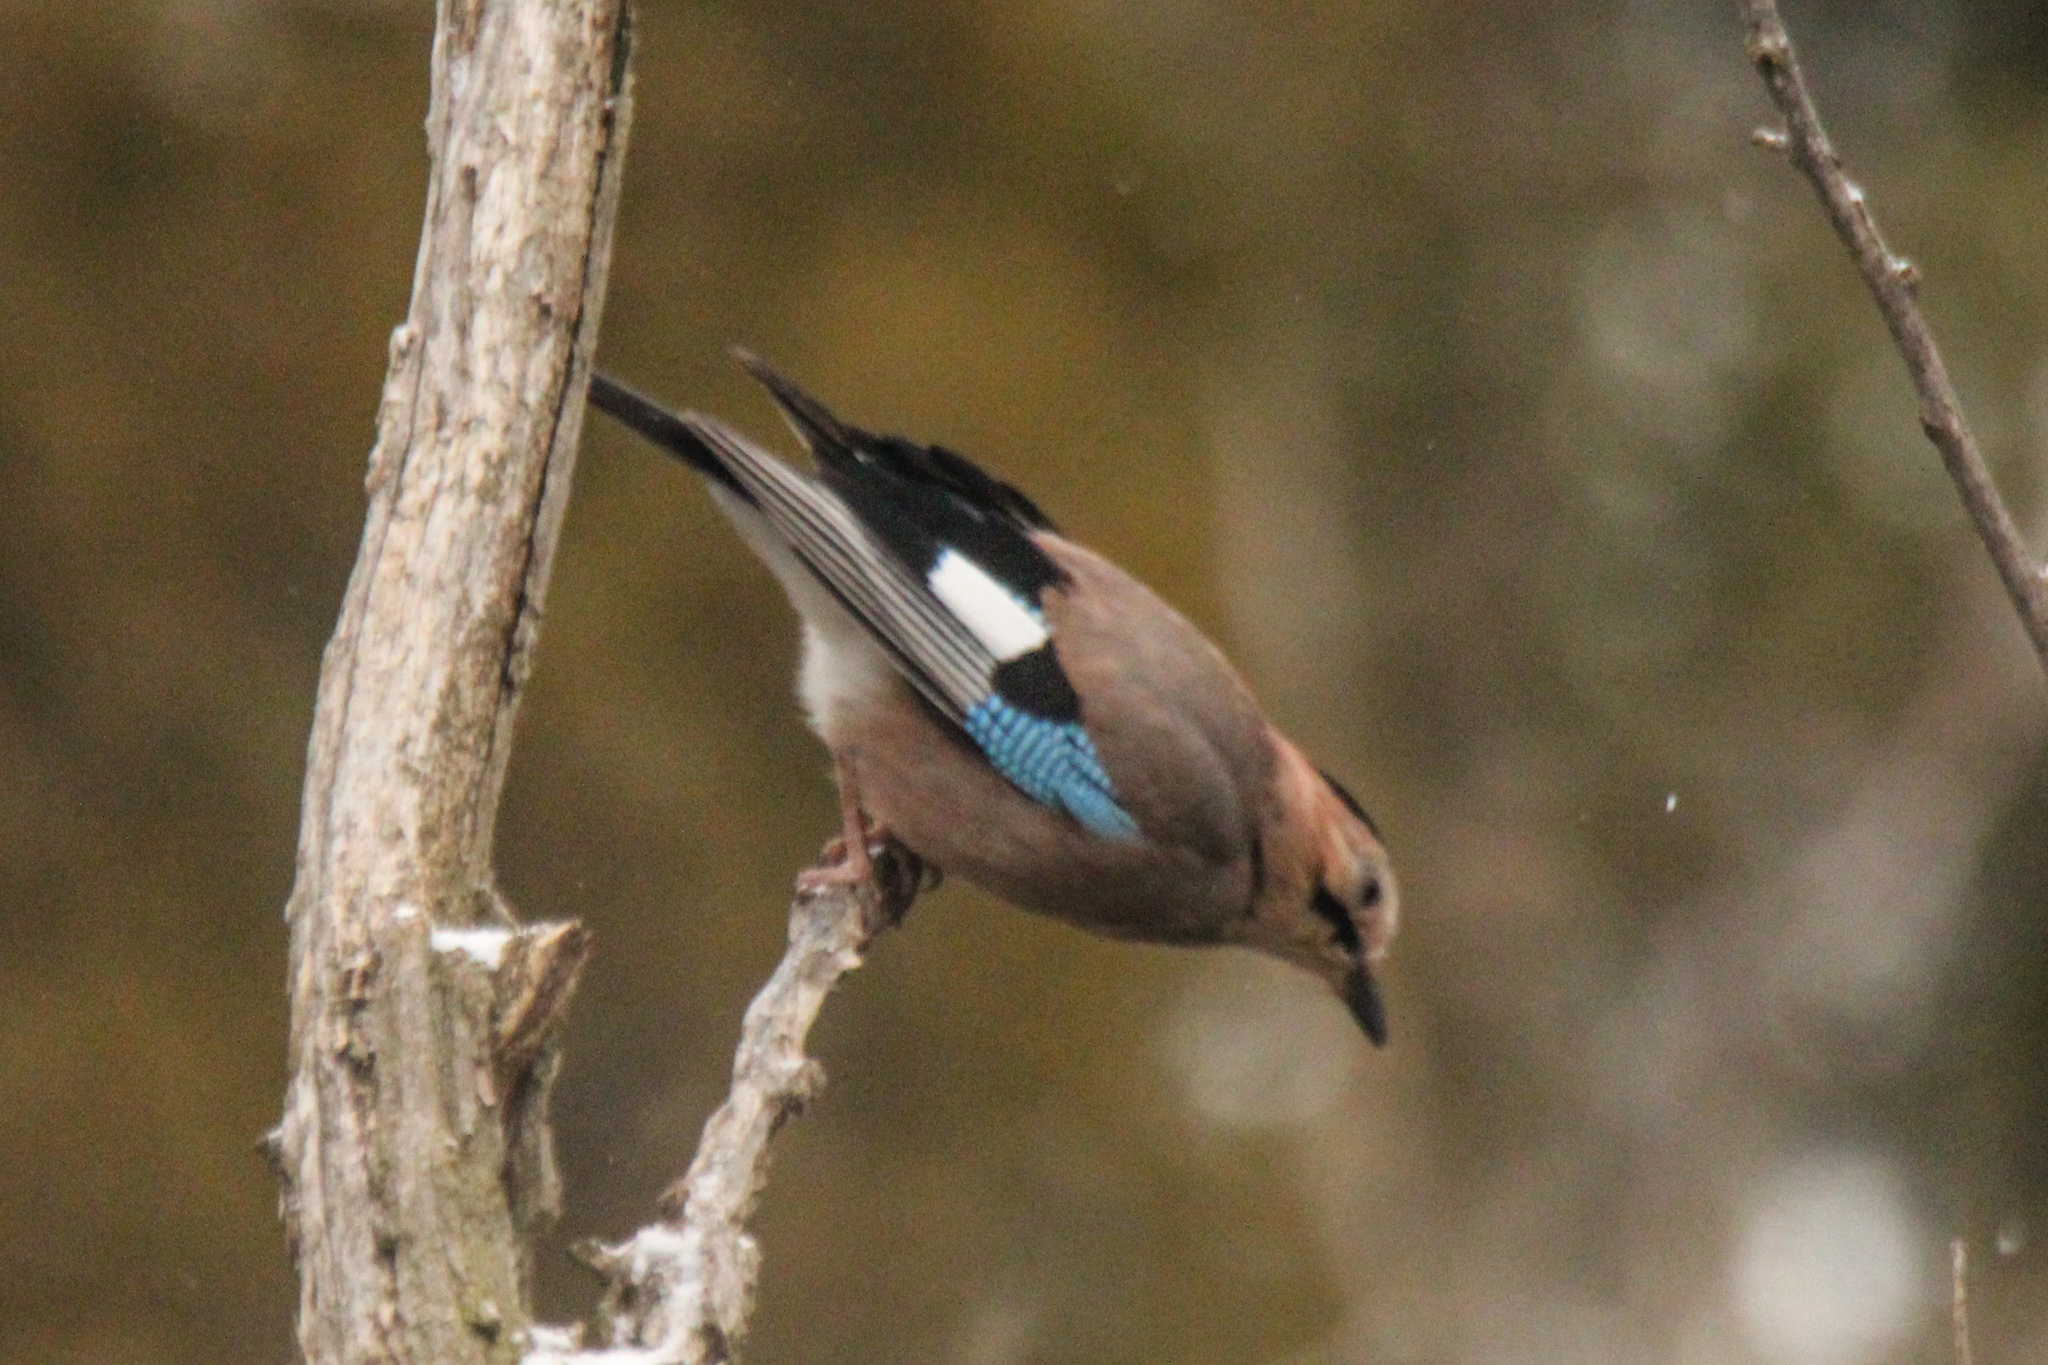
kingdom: Animalia
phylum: Chordata
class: Aves
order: Passeriformes
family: Corvidae
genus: Garrulus
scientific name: Garrulus glandarius
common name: Eurasian jay
